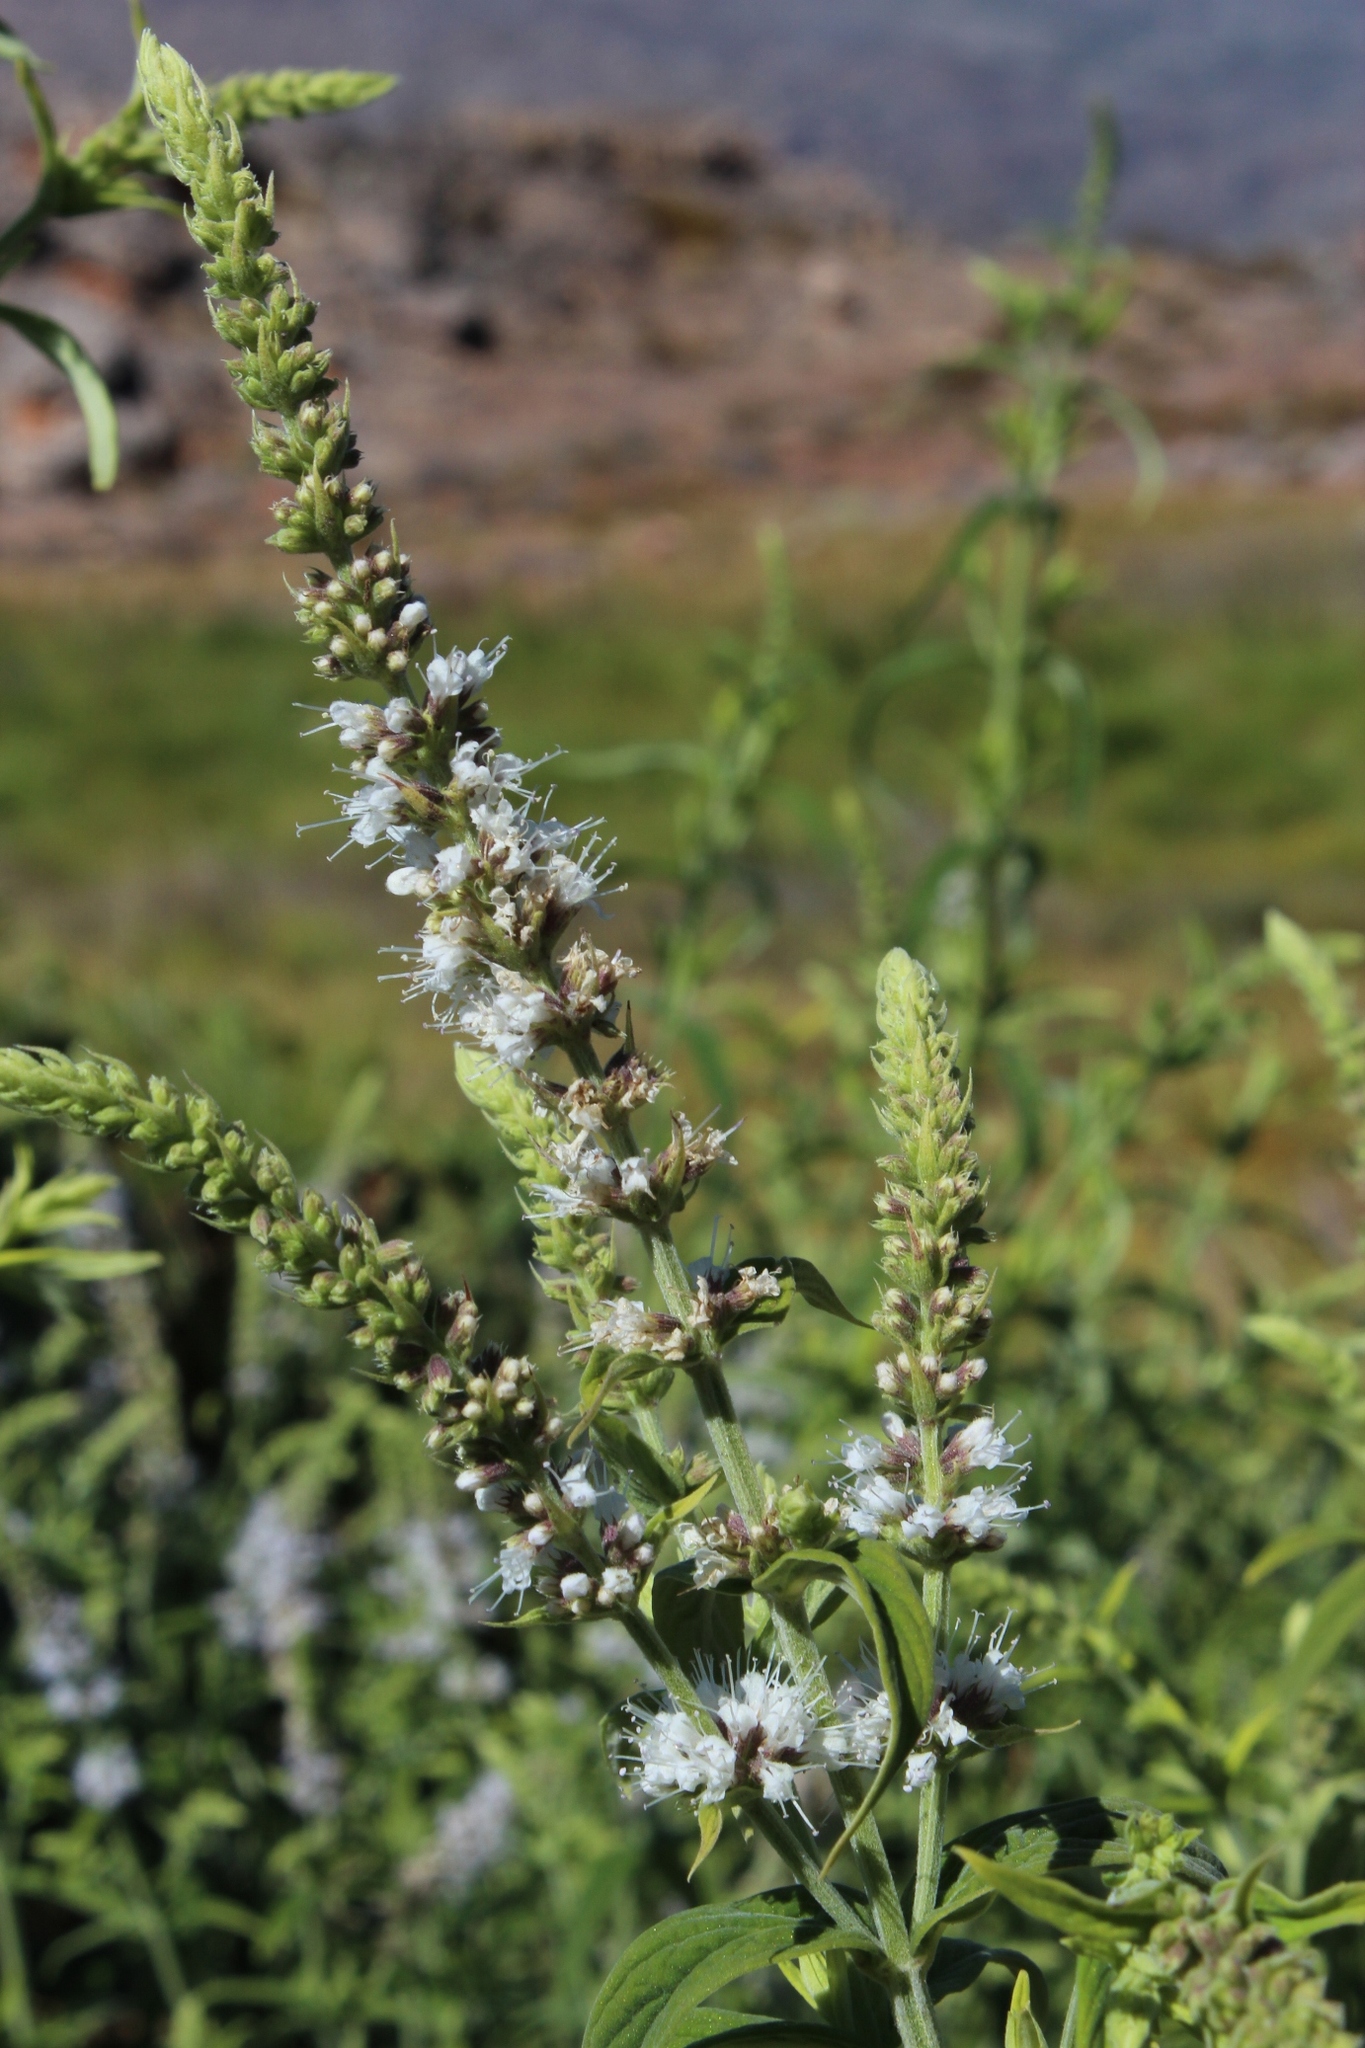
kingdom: Plantae
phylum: Tracheophyta
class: Magnoliopsida
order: Lamiales
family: Lamiaceae
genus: Mentha
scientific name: Mentha longifolia
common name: Horse mint
